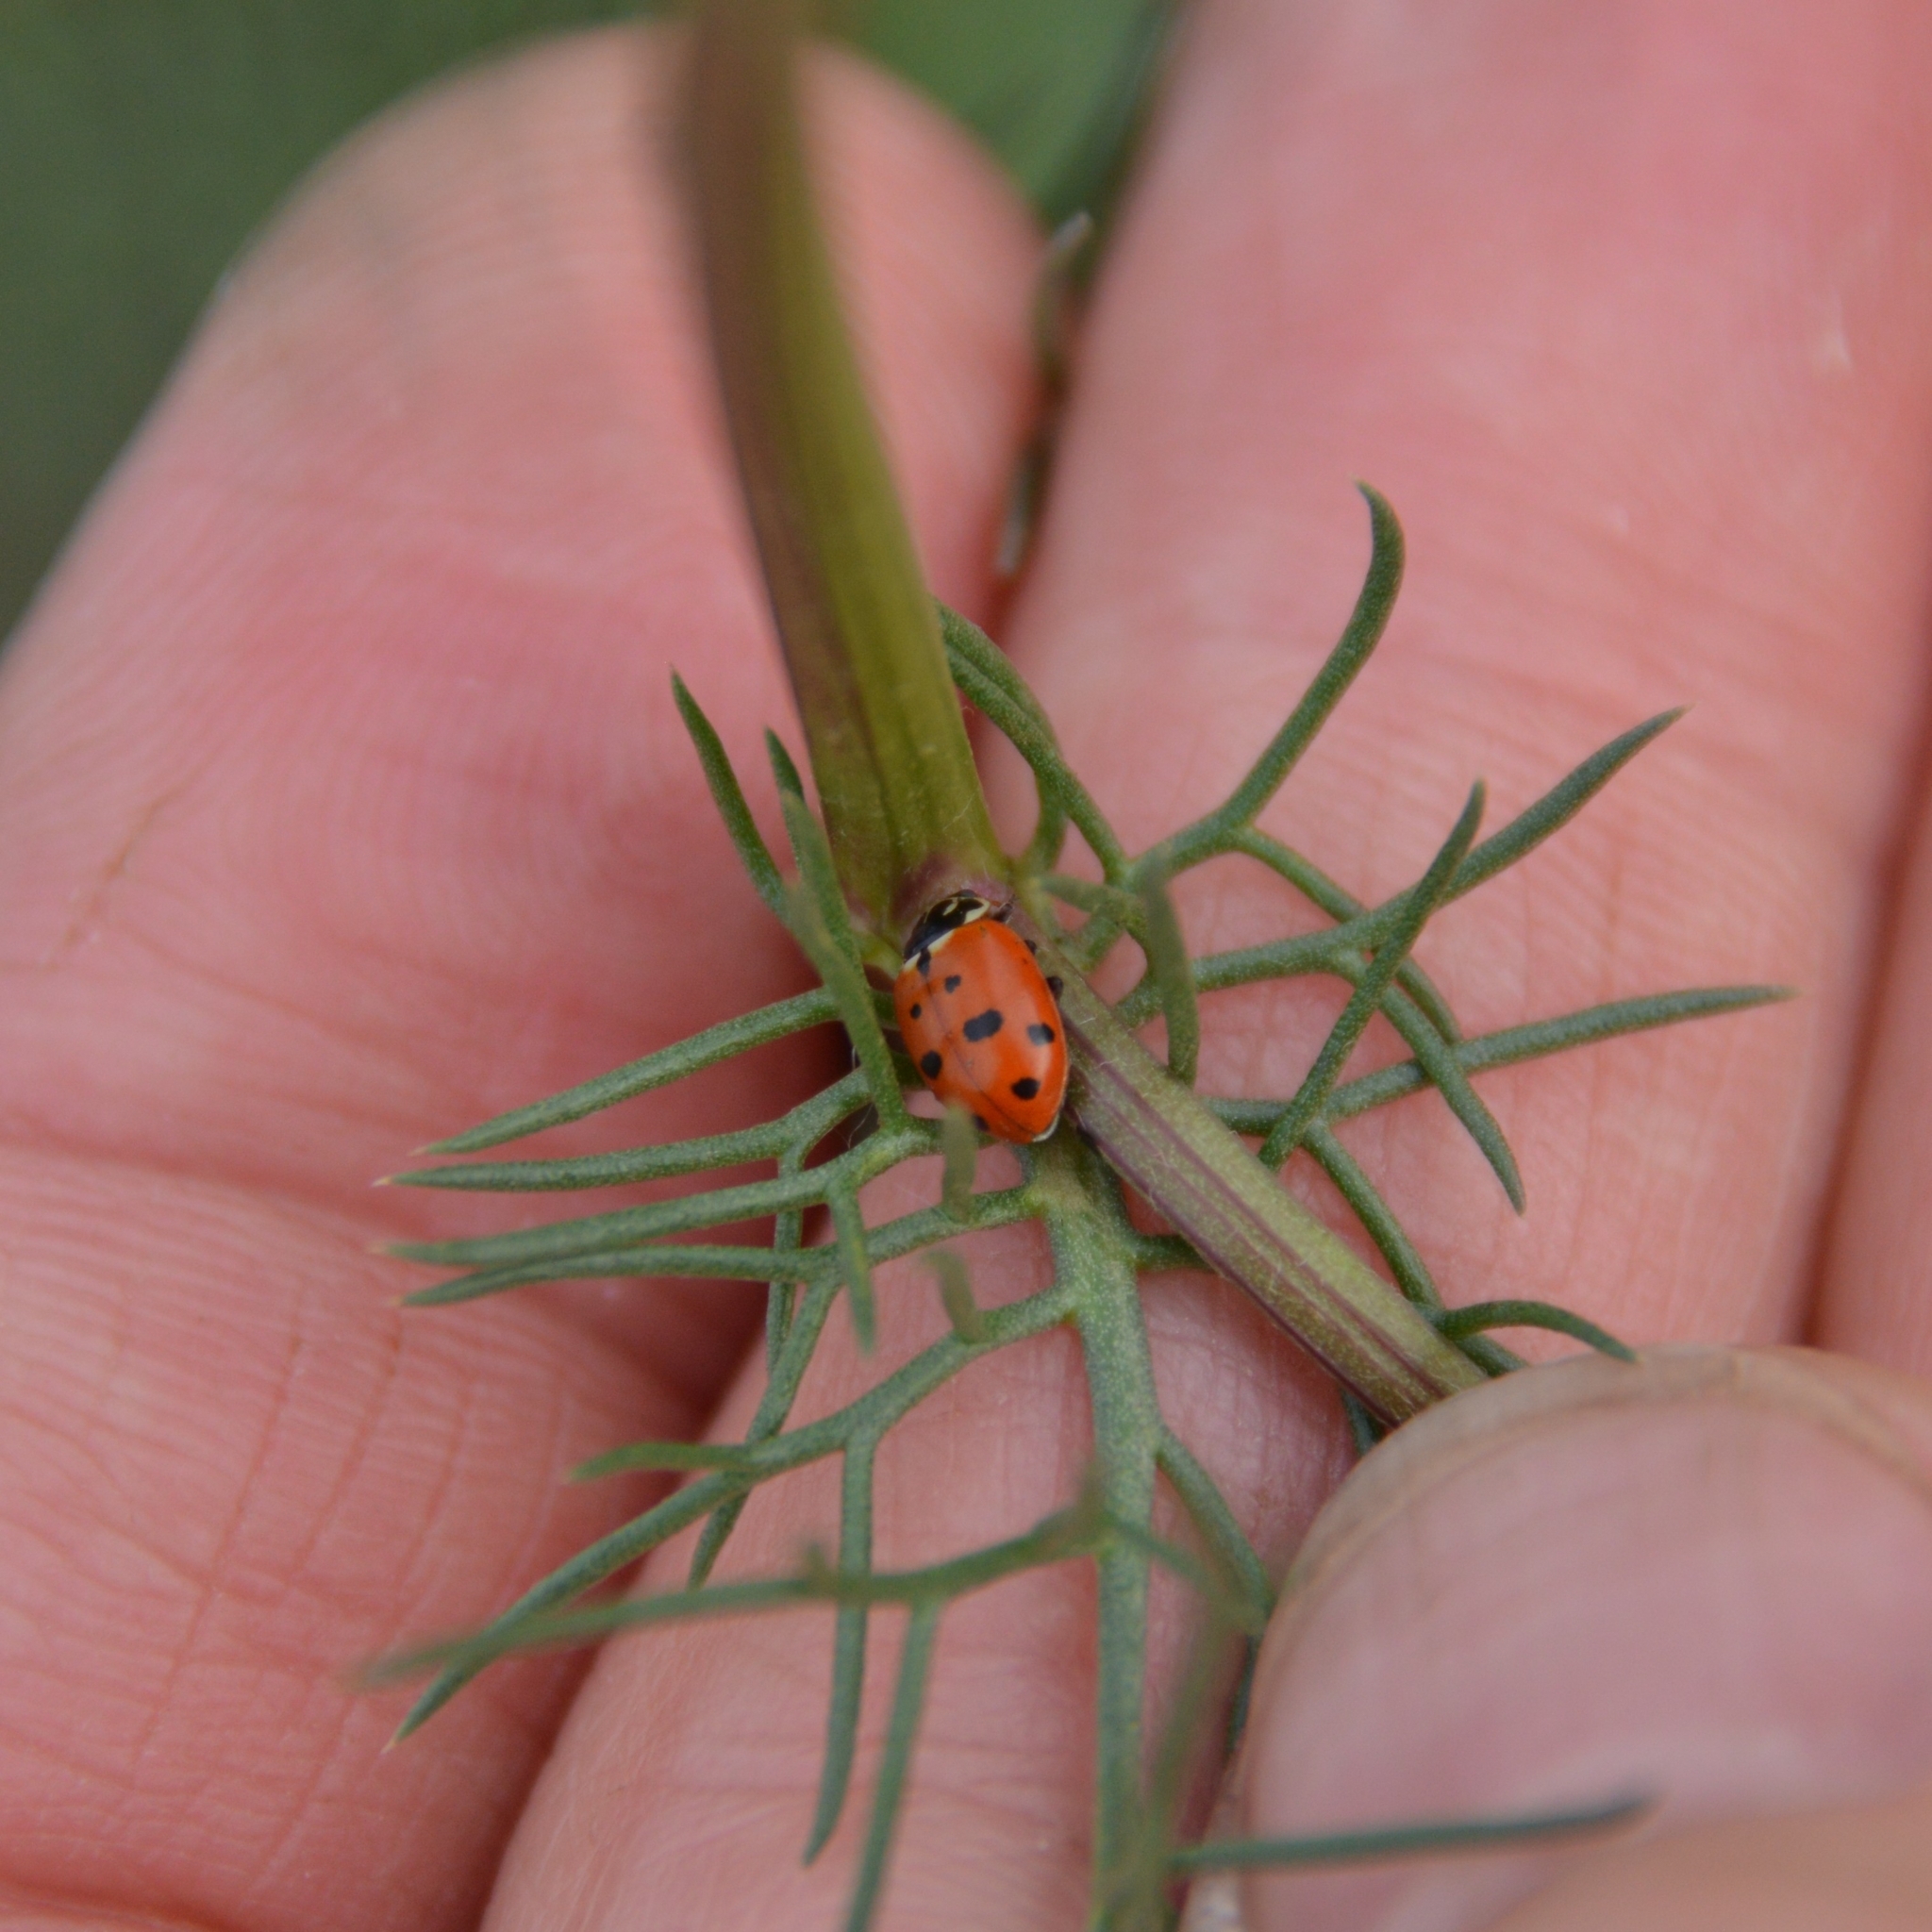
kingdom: Animalia
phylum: Arthropoda
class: Insecta
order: Coleoptera
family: Coccinellidae
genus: Hippodamia
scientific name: Hippodamia variegata
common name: Ladybird beetle
